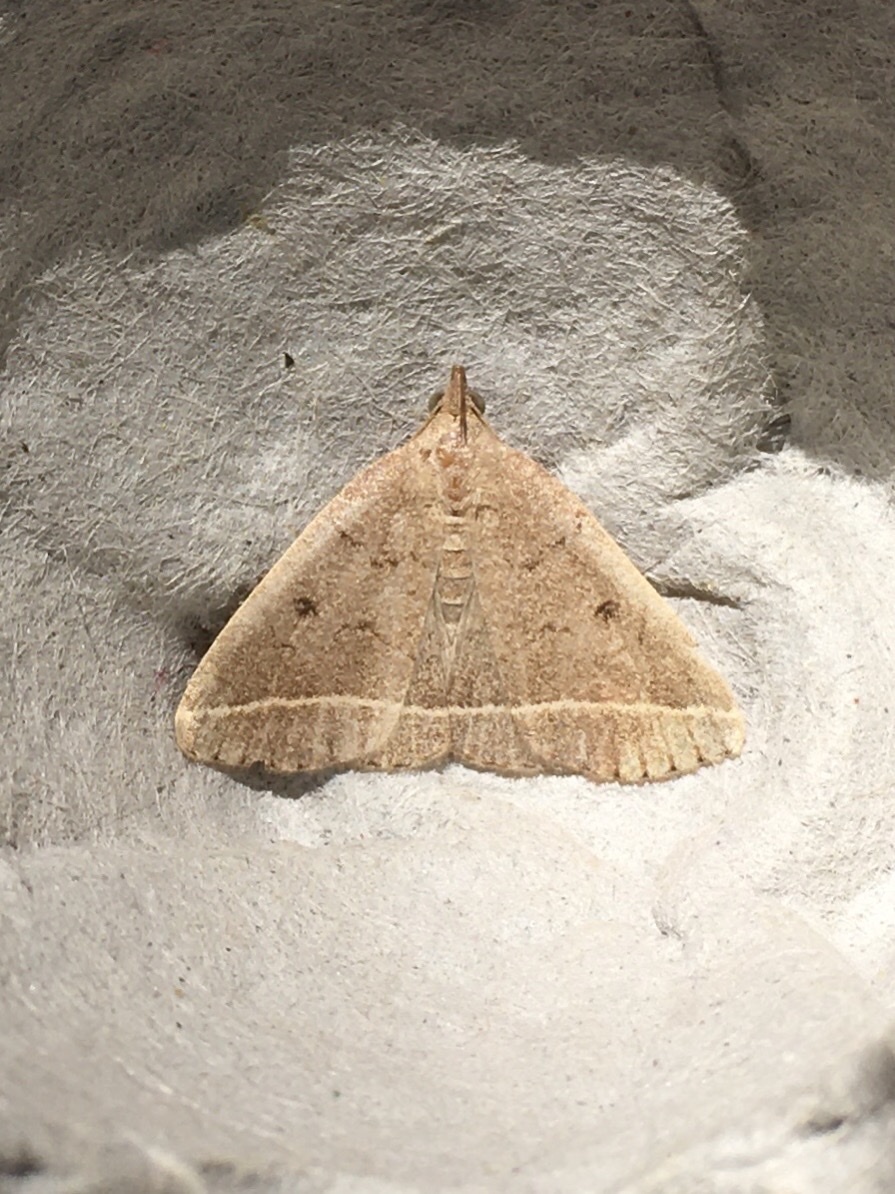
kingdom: Animalia
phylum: Arthropoda
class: Insecta
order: Lepidoptera
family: Erebidae
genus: Zanclognatha
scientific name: Zanclognatha marcidilinea
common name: Yellowish fan-foot
